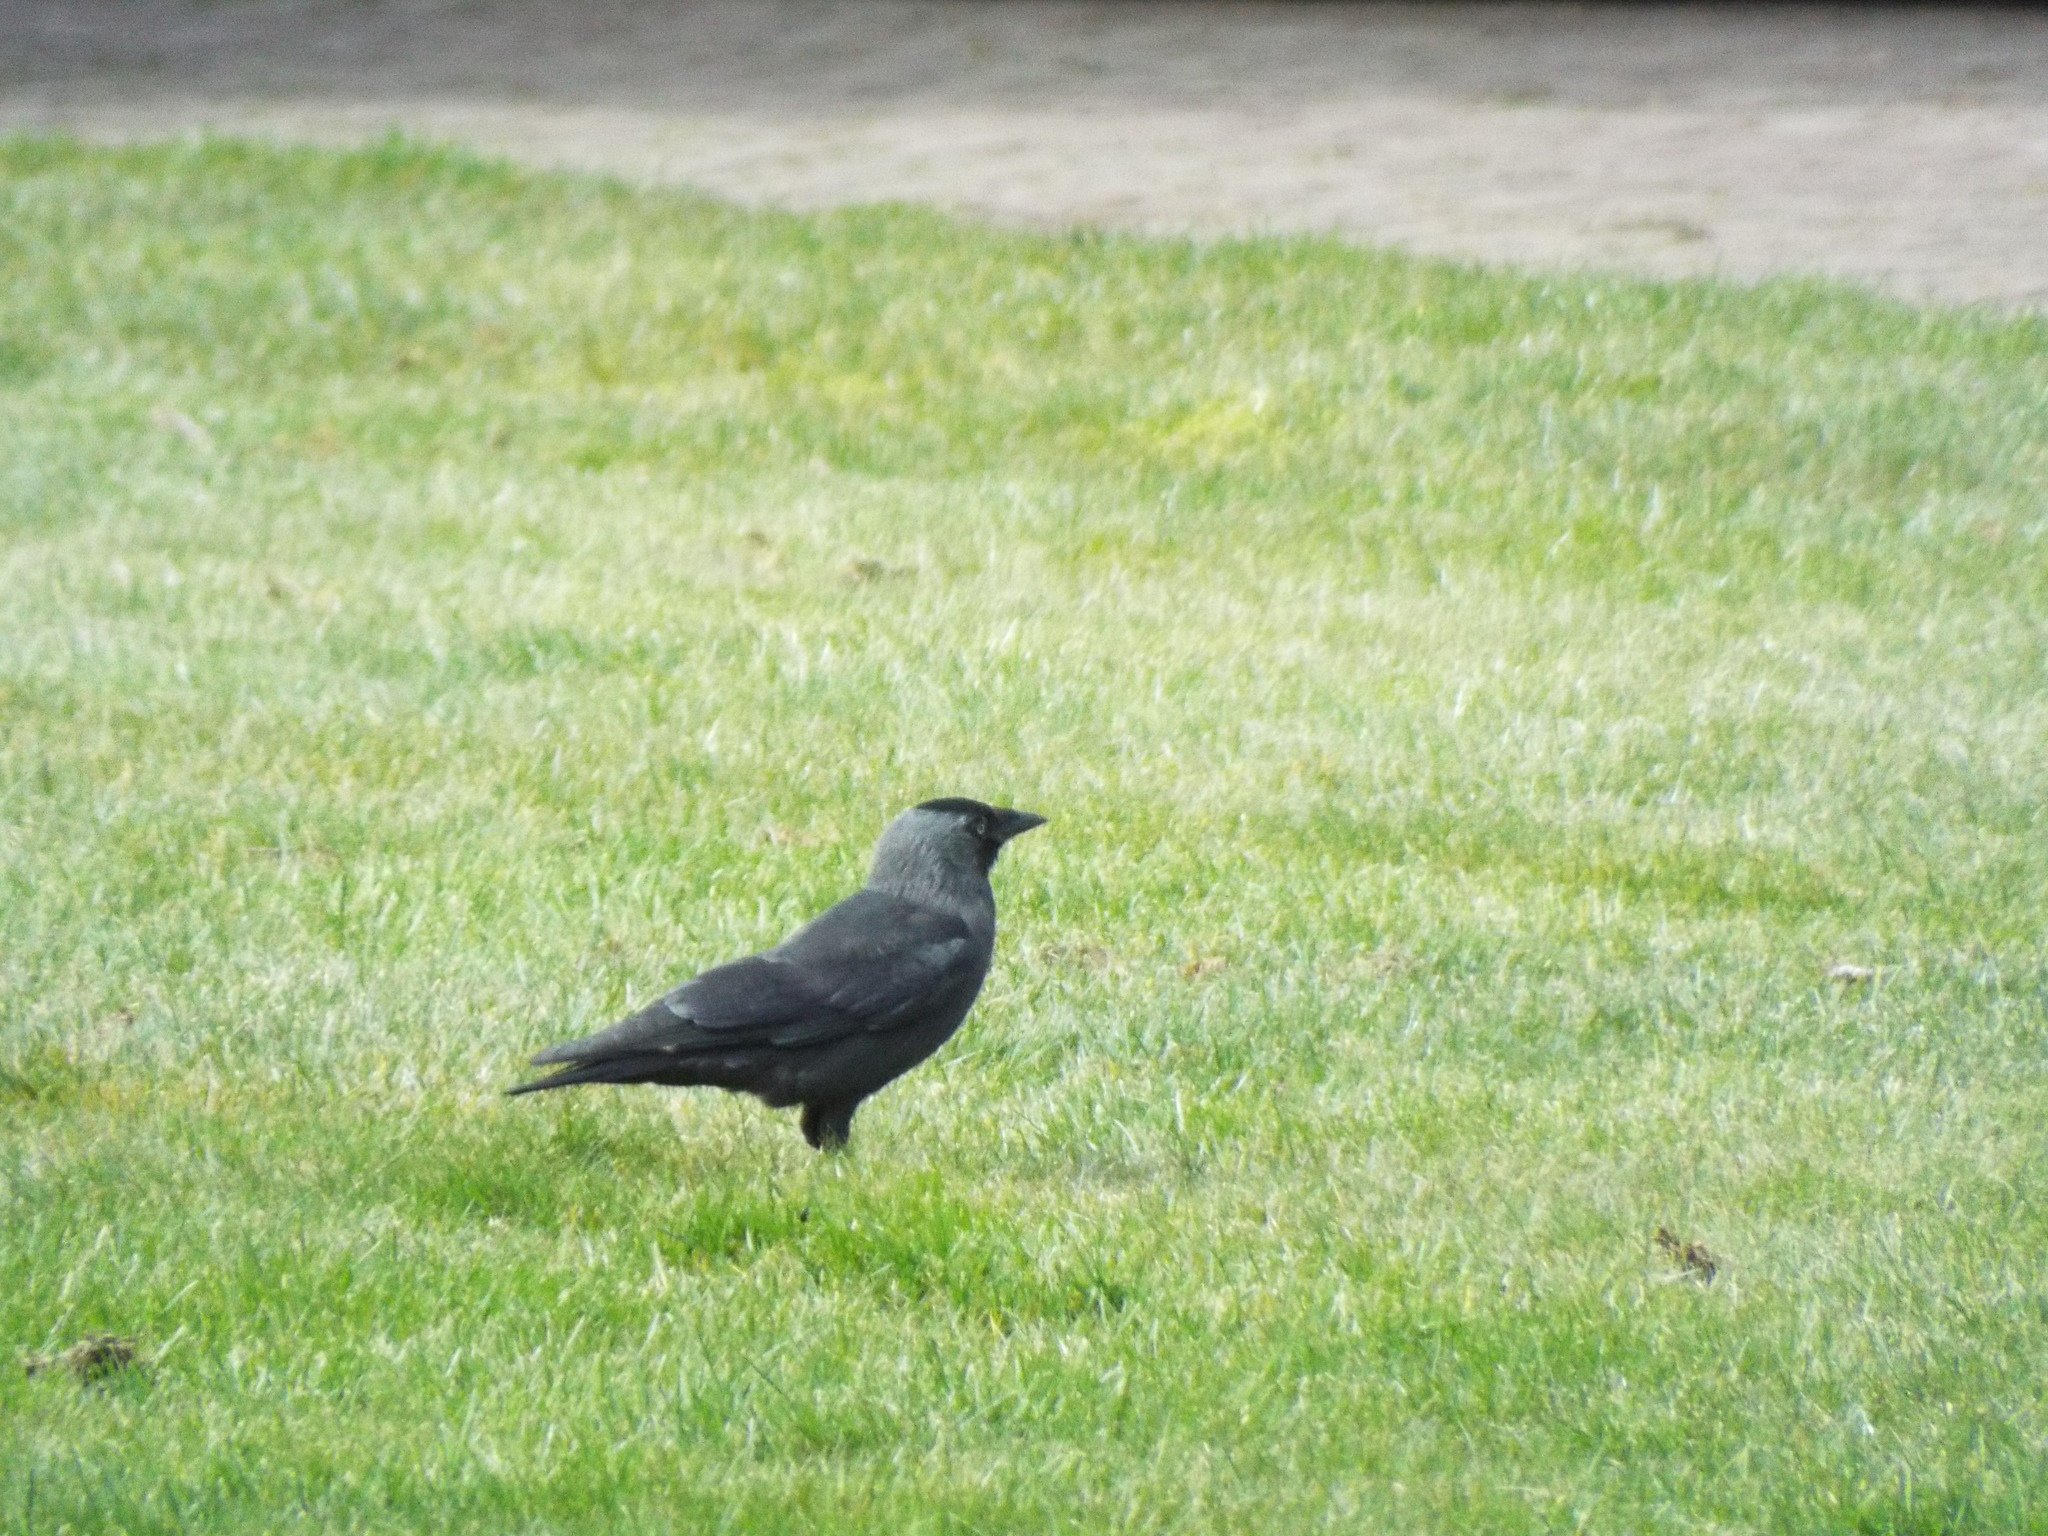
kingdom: Animalia
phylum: Chordata
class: Aves
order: Passeriformes
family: Corvidae
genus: Coloeus
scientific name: Coloeus monedula
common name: Western jackdaw
